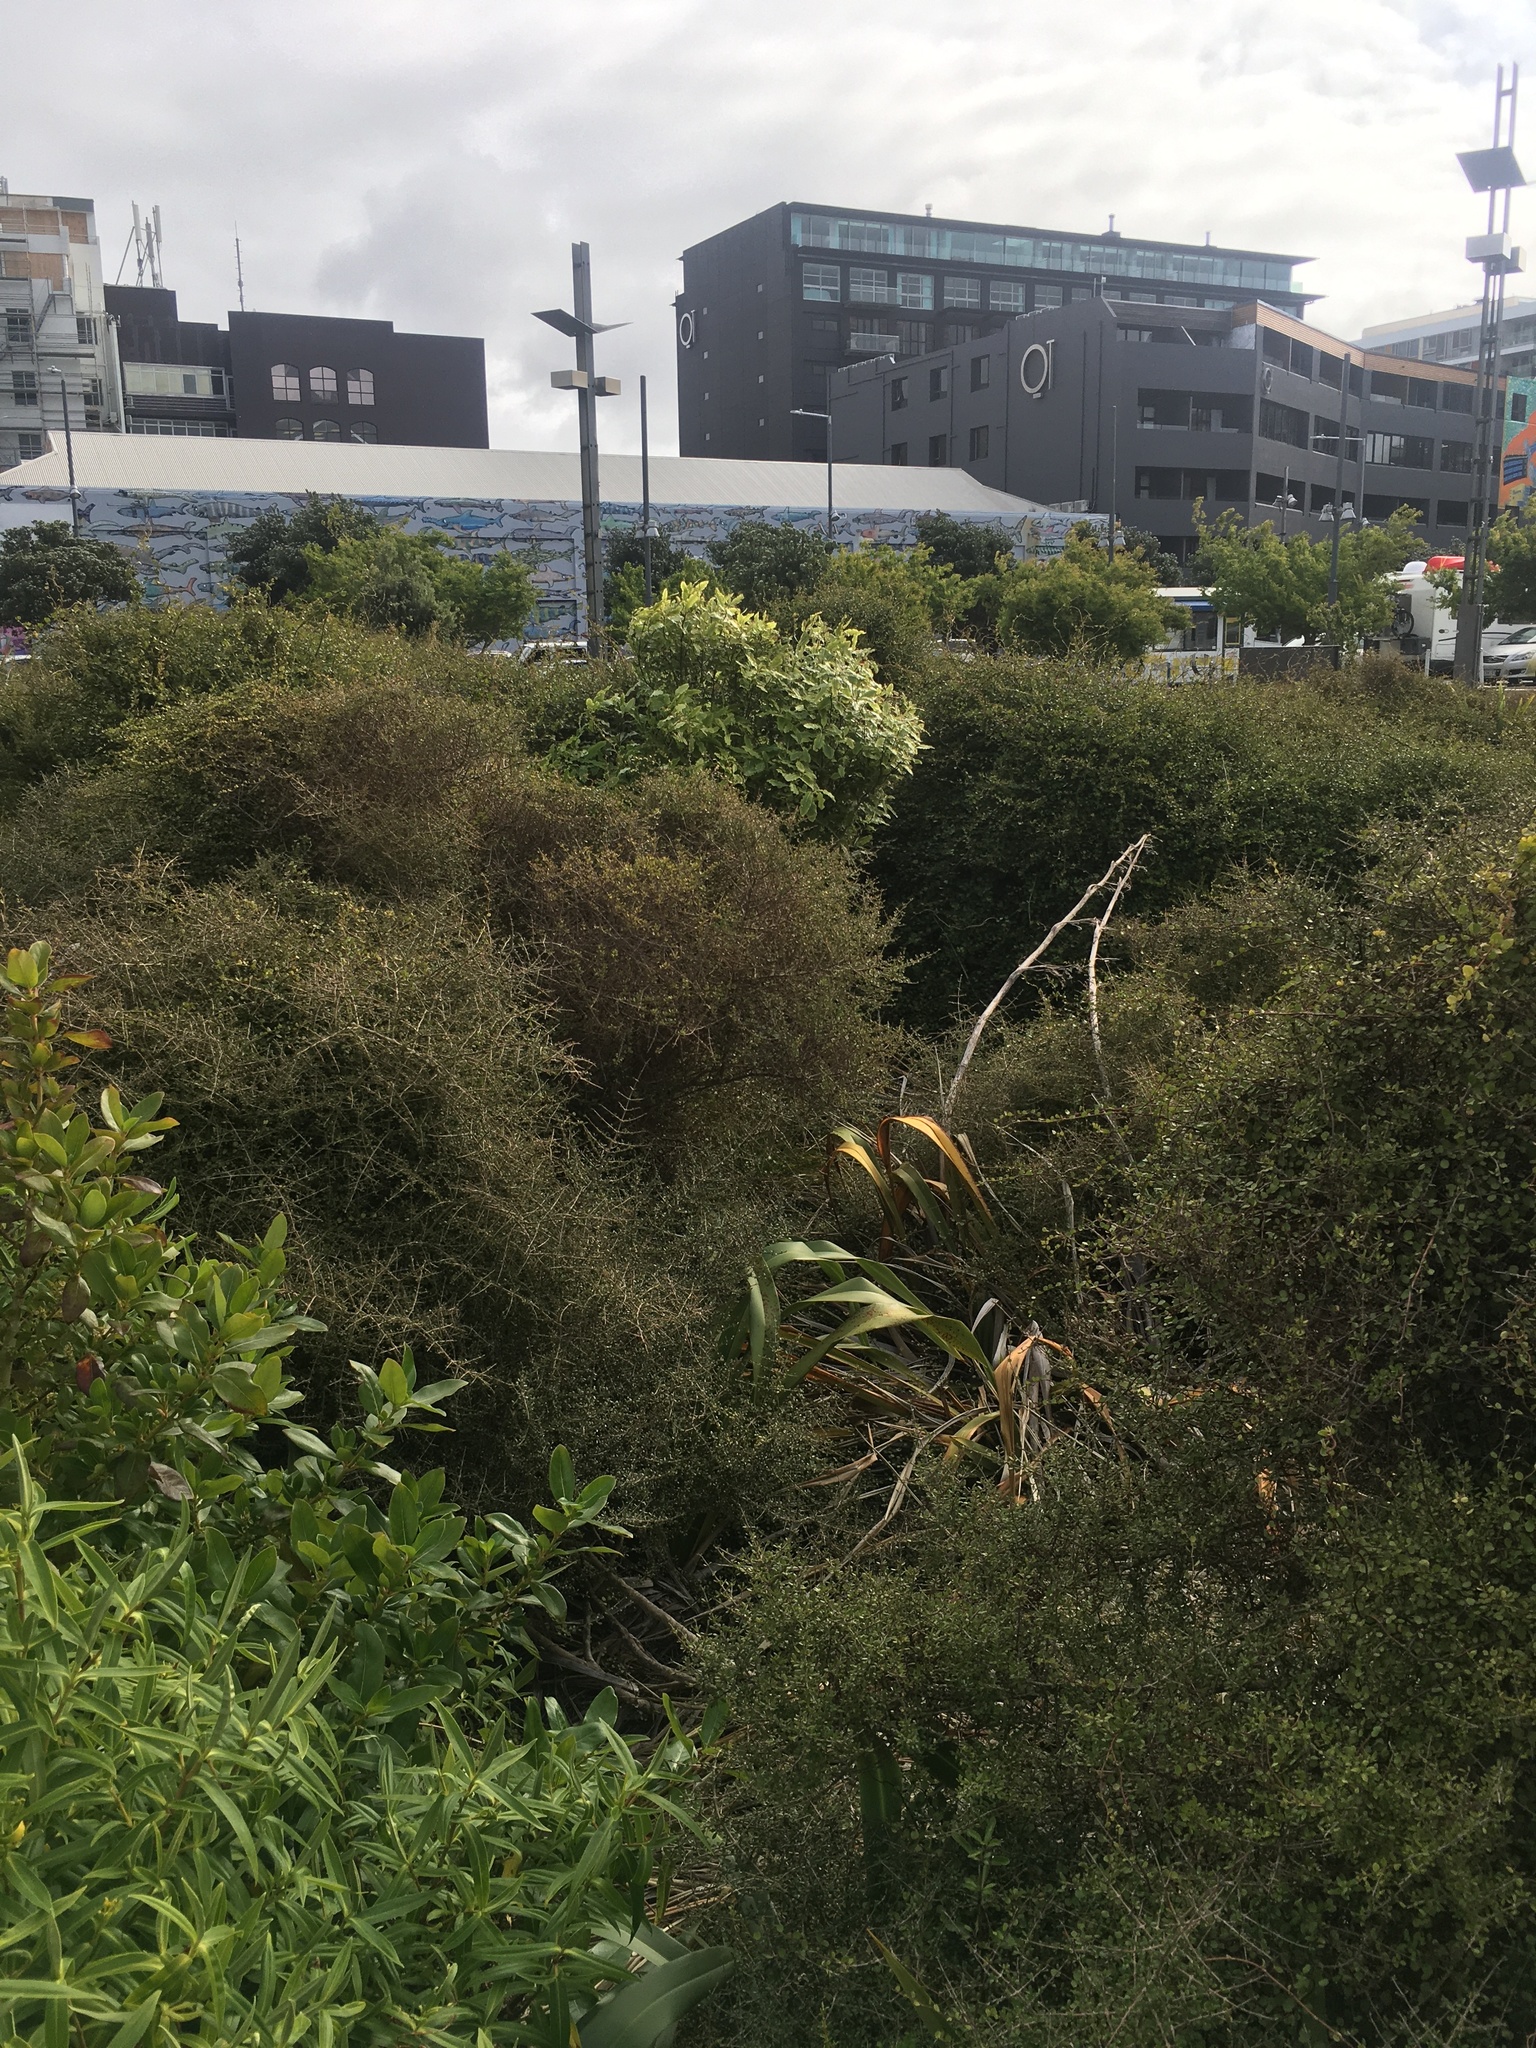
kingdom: Plantae
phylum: Tracheophyta
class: Magnoliopsida
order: Apiales
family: Pittosporaceae
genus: Pittosporum
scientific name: Pittosporum eugenioides
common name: Lemonwood
